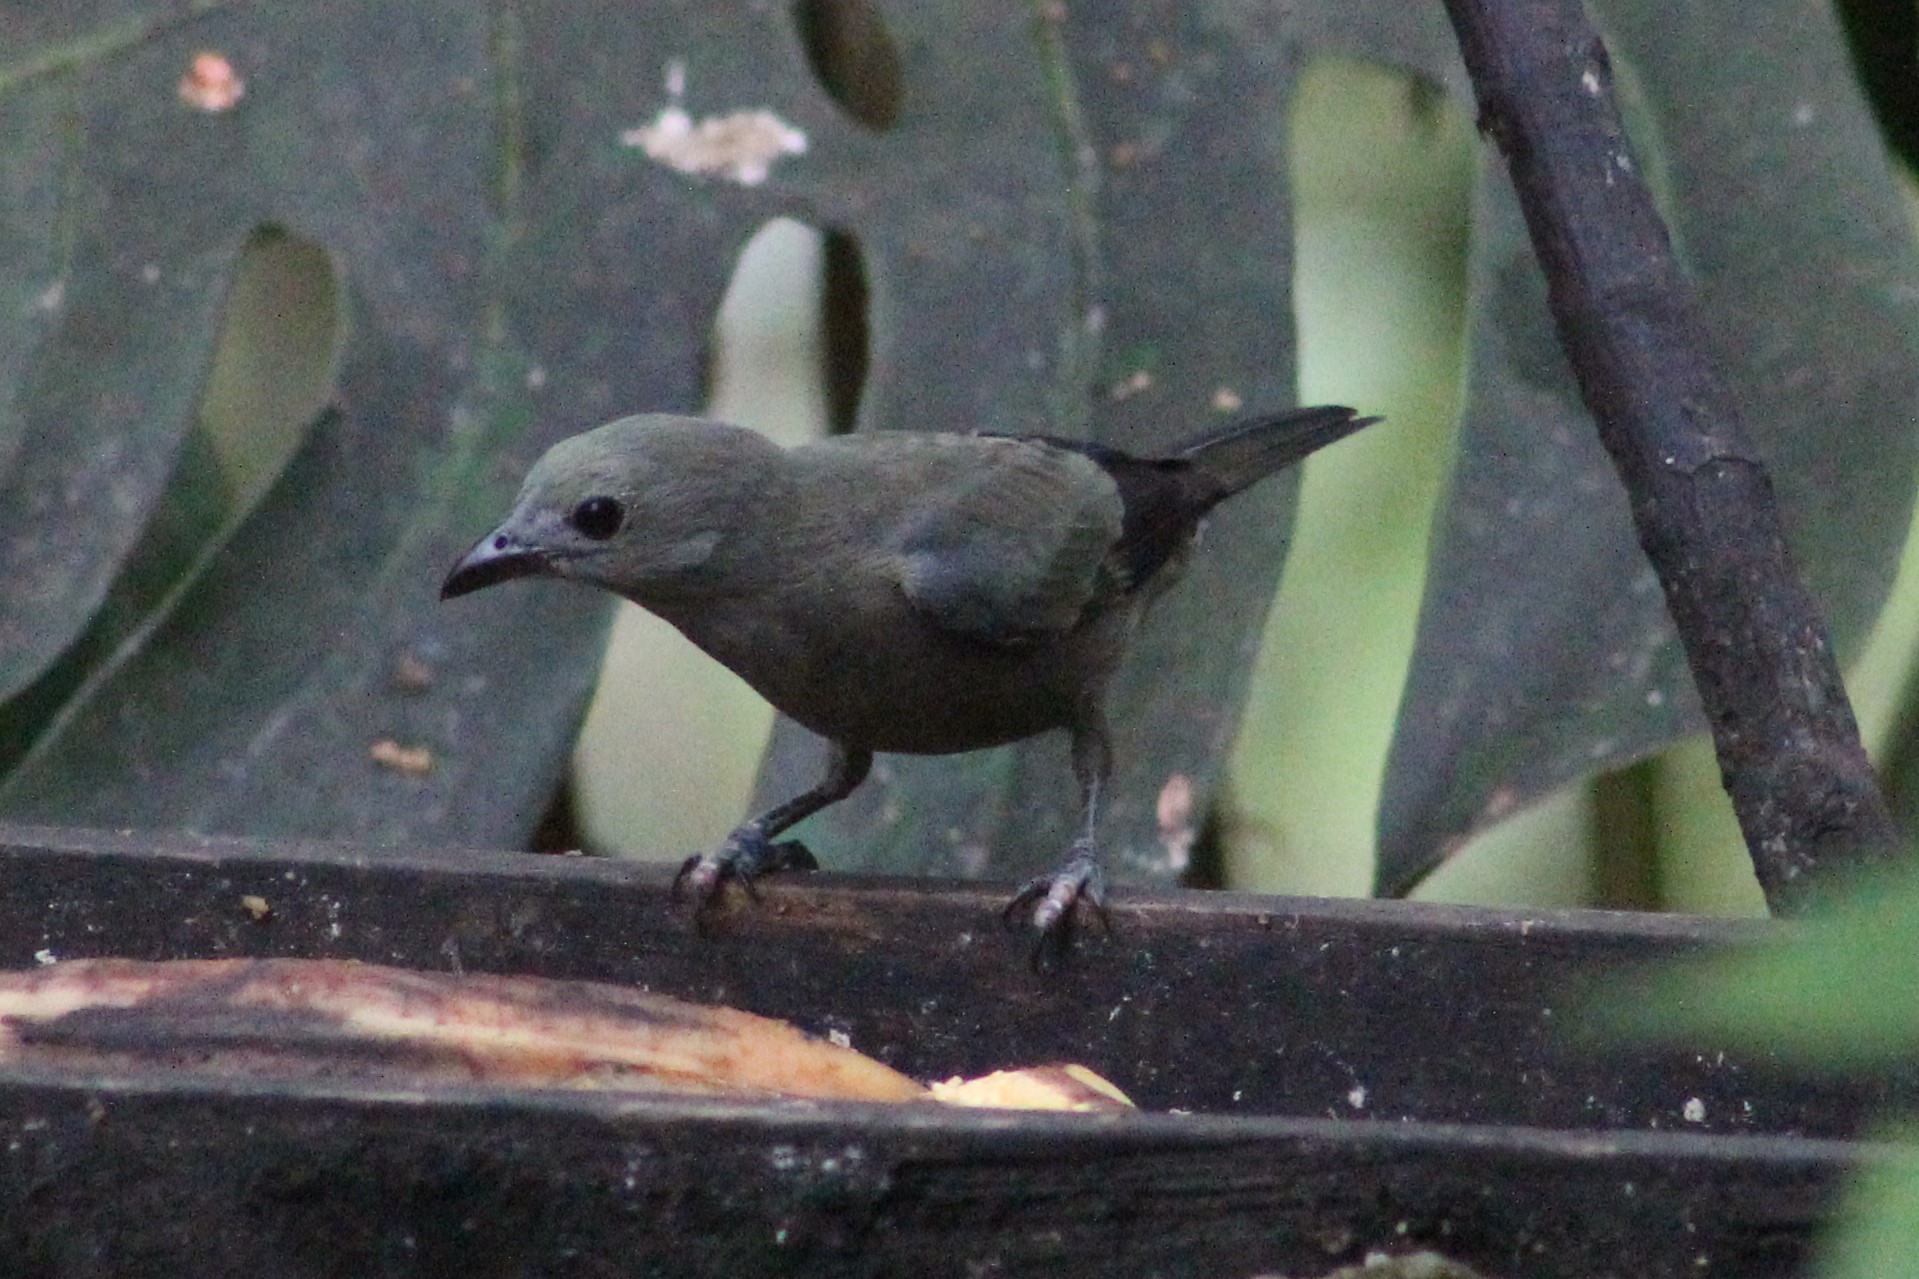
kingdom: Animalia
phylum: Chordata
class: Aves
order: Passeriformes
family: Thraupidae
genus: Thraupis
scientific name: Thraupis palmarum
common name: Palm tanager
